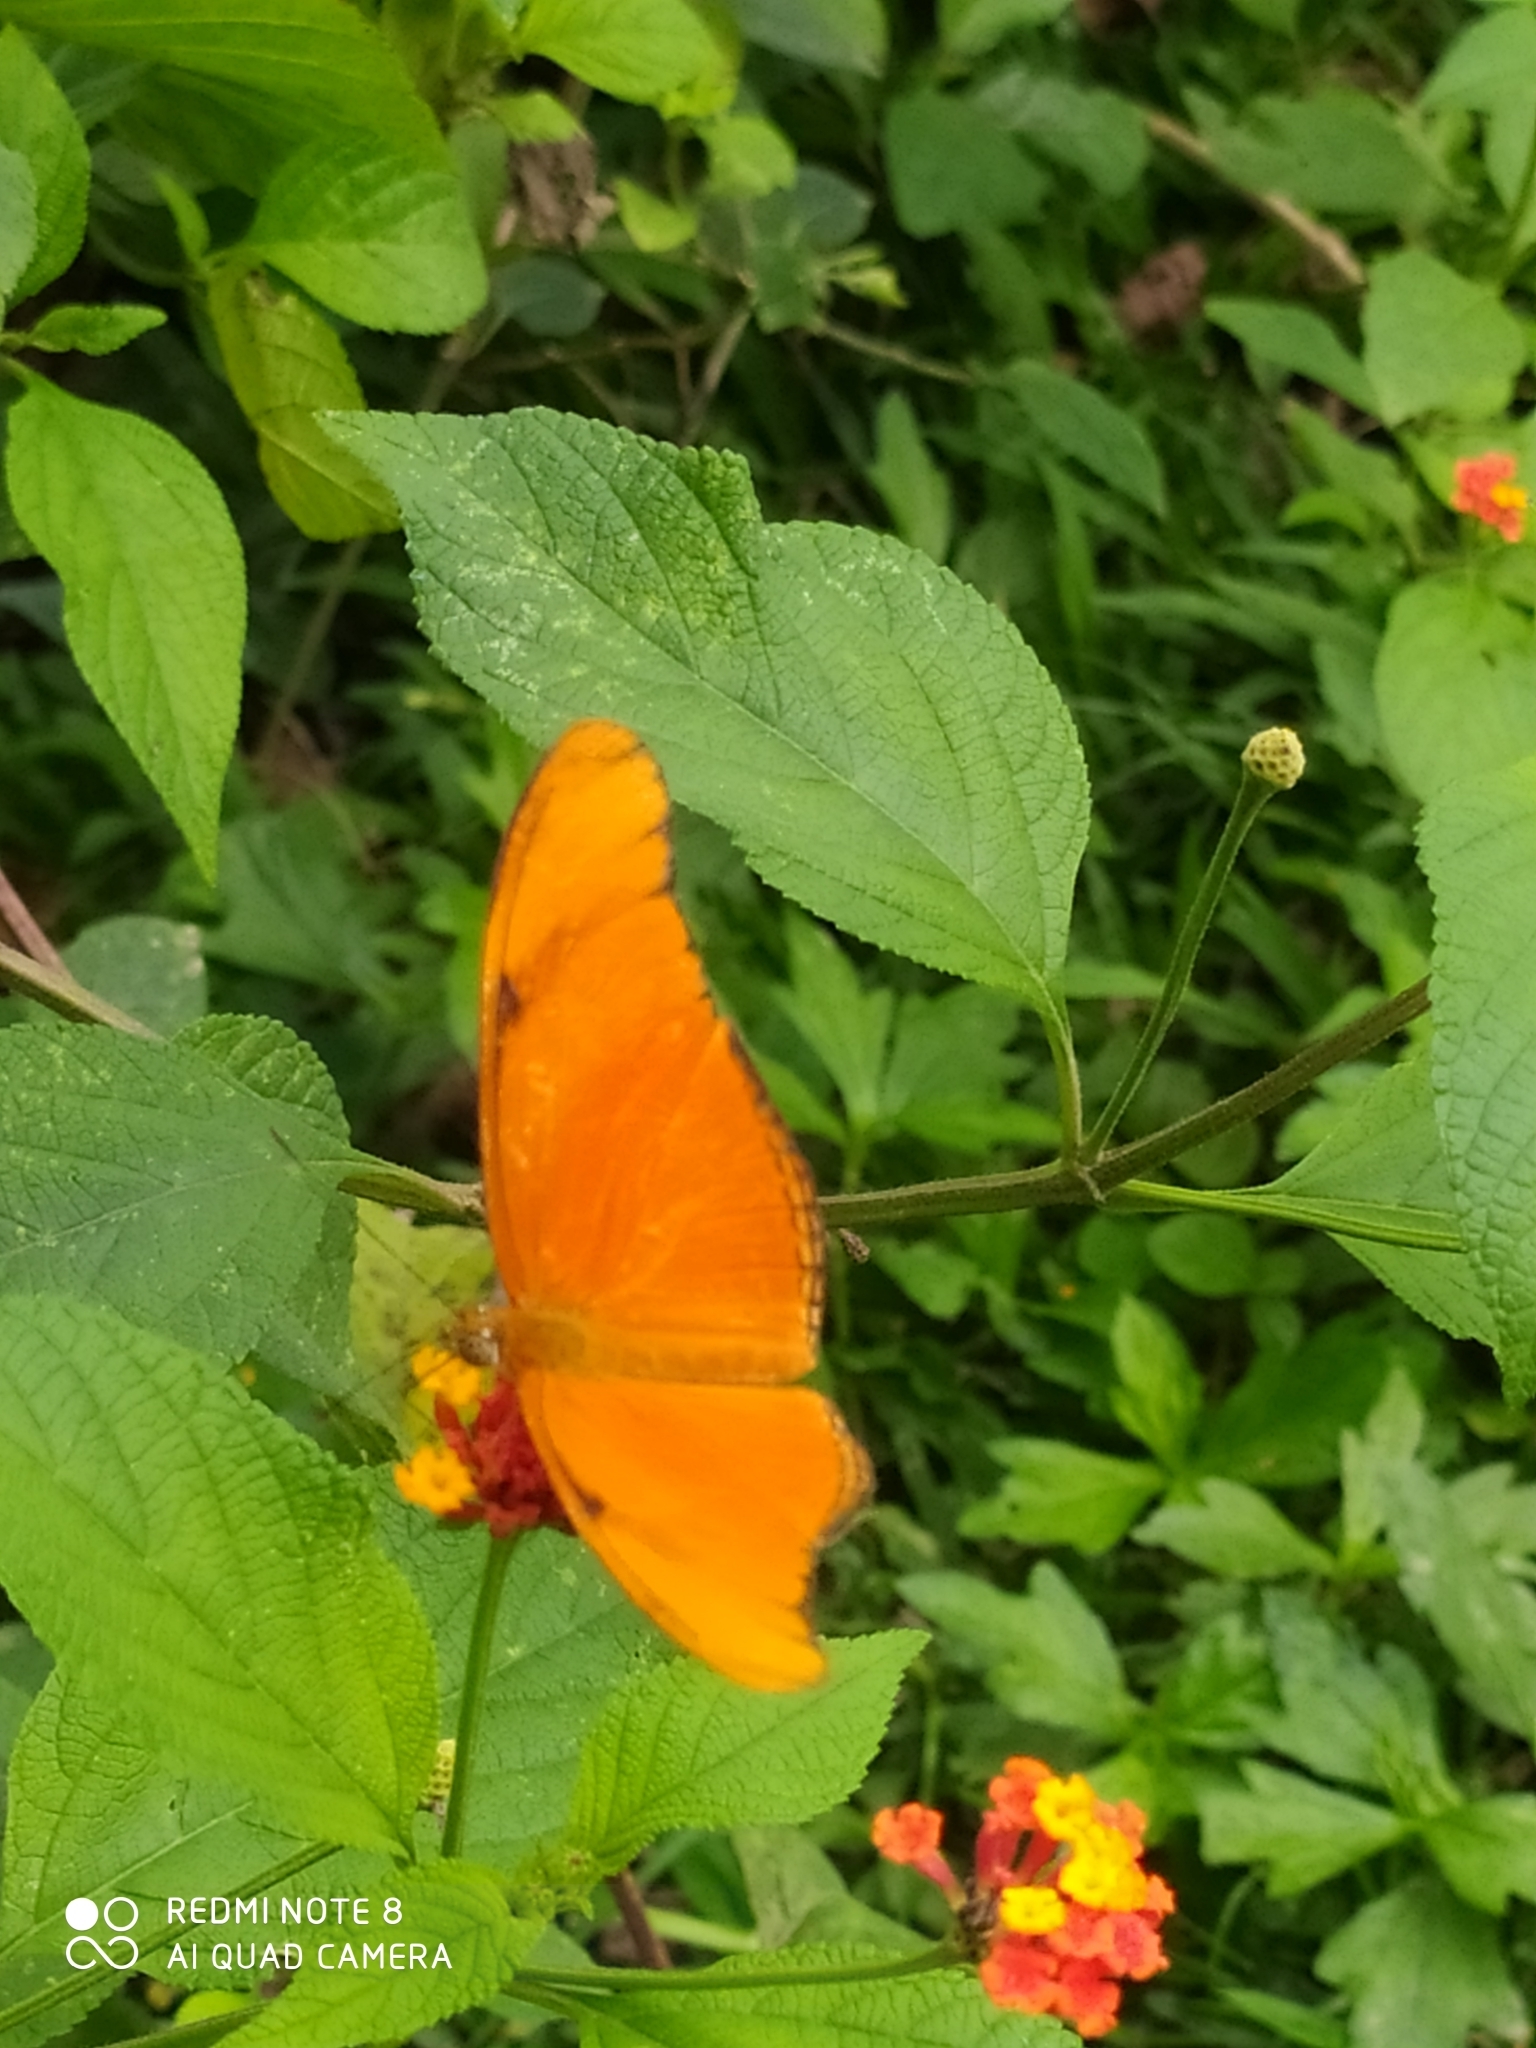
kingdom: Animalia
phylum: Arthropoda
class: Insecta
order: Lepidoptera
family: Nymphalidae
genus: Dryas
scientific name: Dryas iulia
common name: Flambeau
